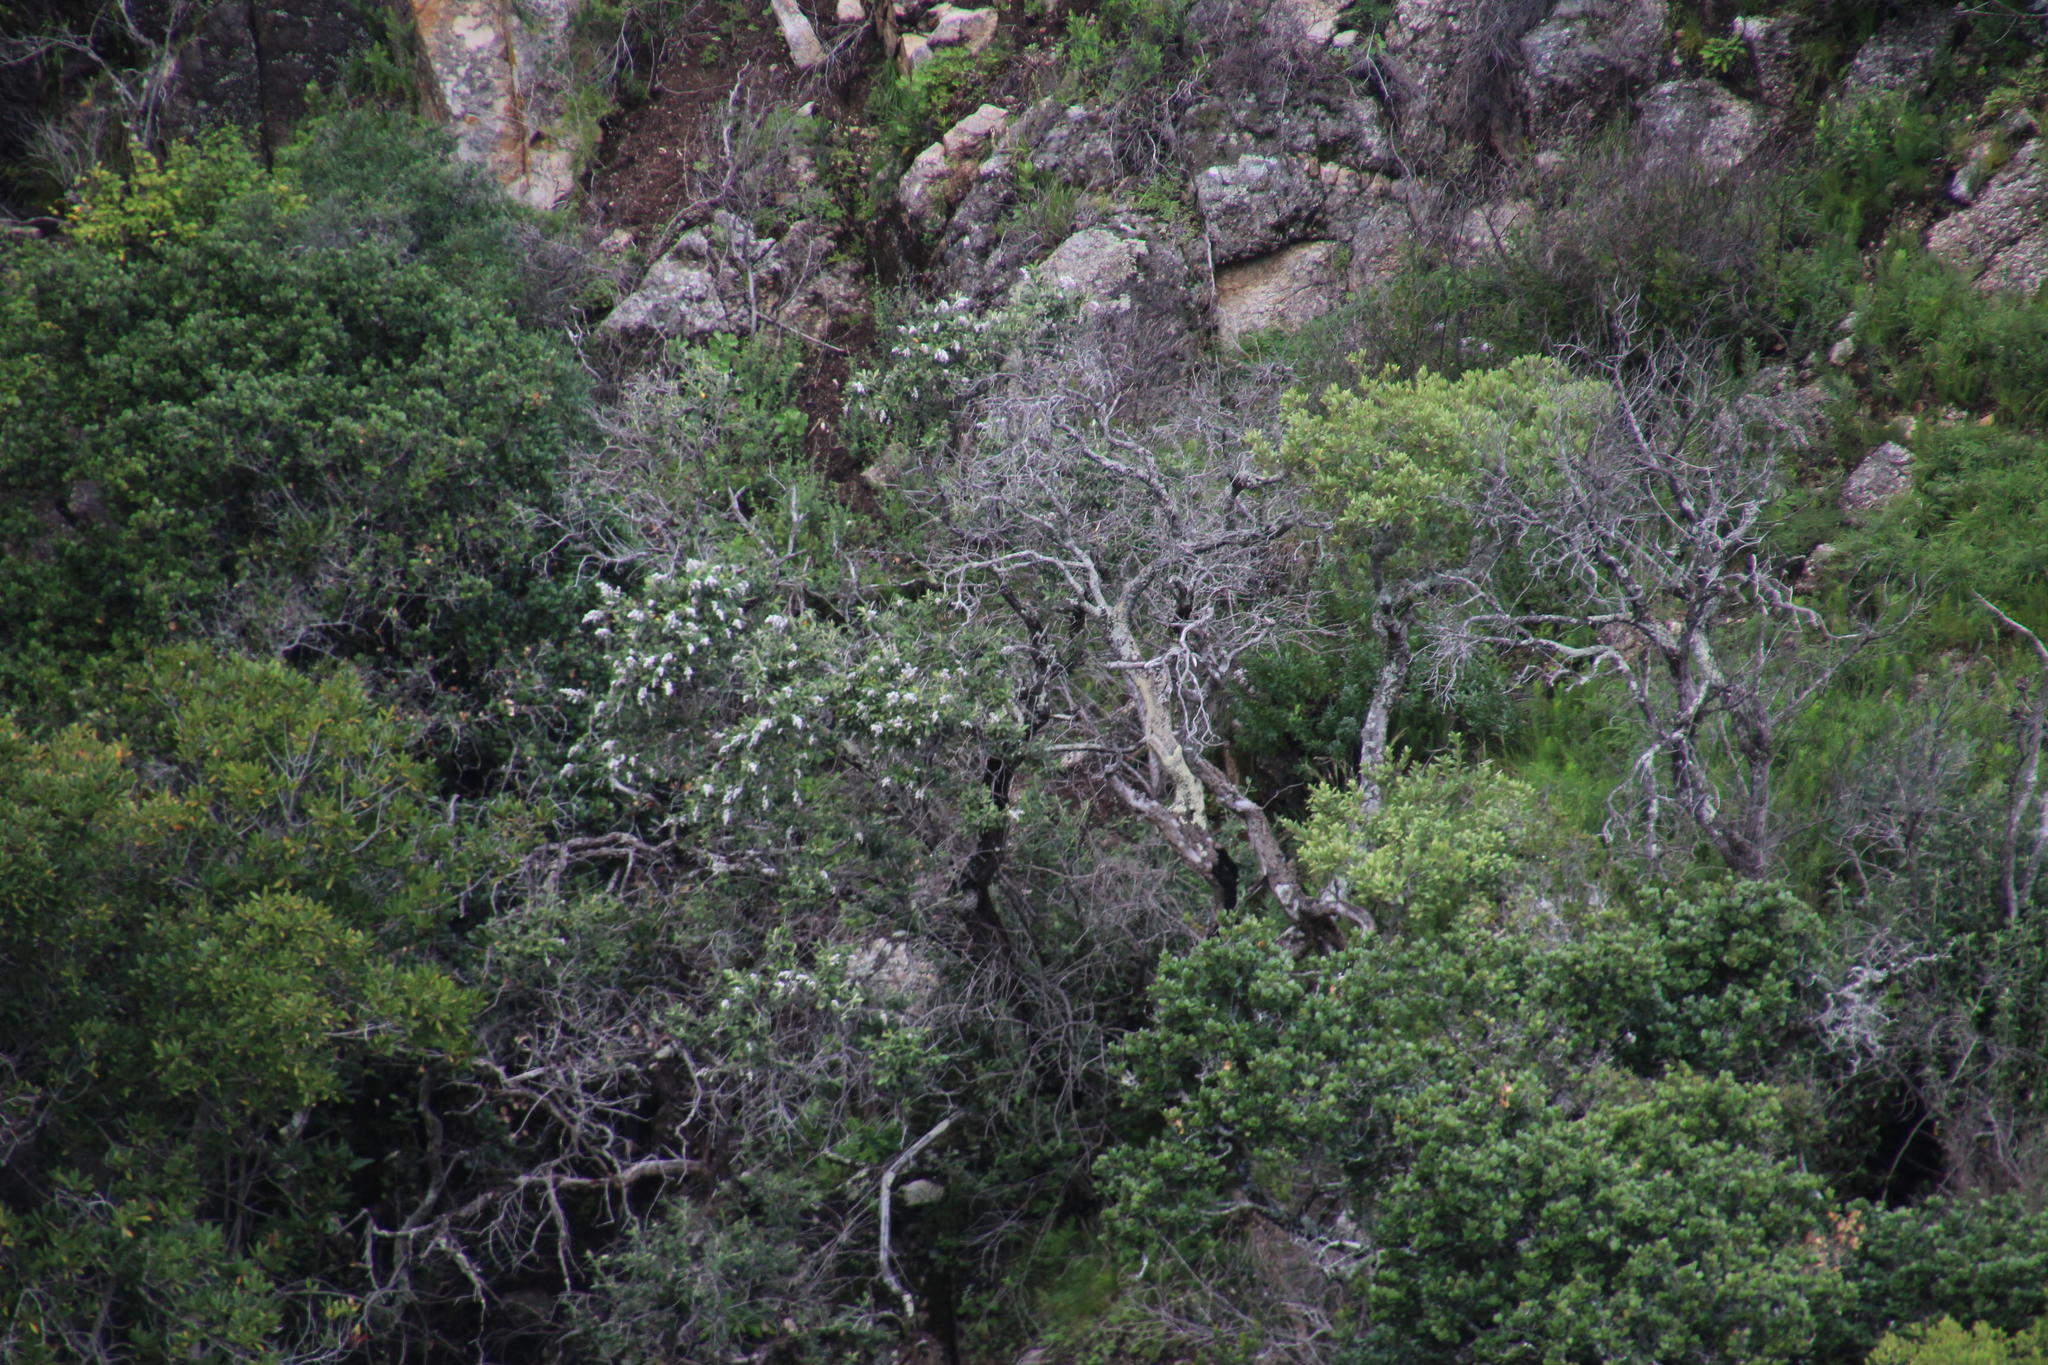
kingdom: Plantae
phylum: Tracheophyta
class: Magnoliopsida
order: Asterales
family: Asteraceae
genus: Tarchonanthus
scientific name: Tarchonanthus littoralis
